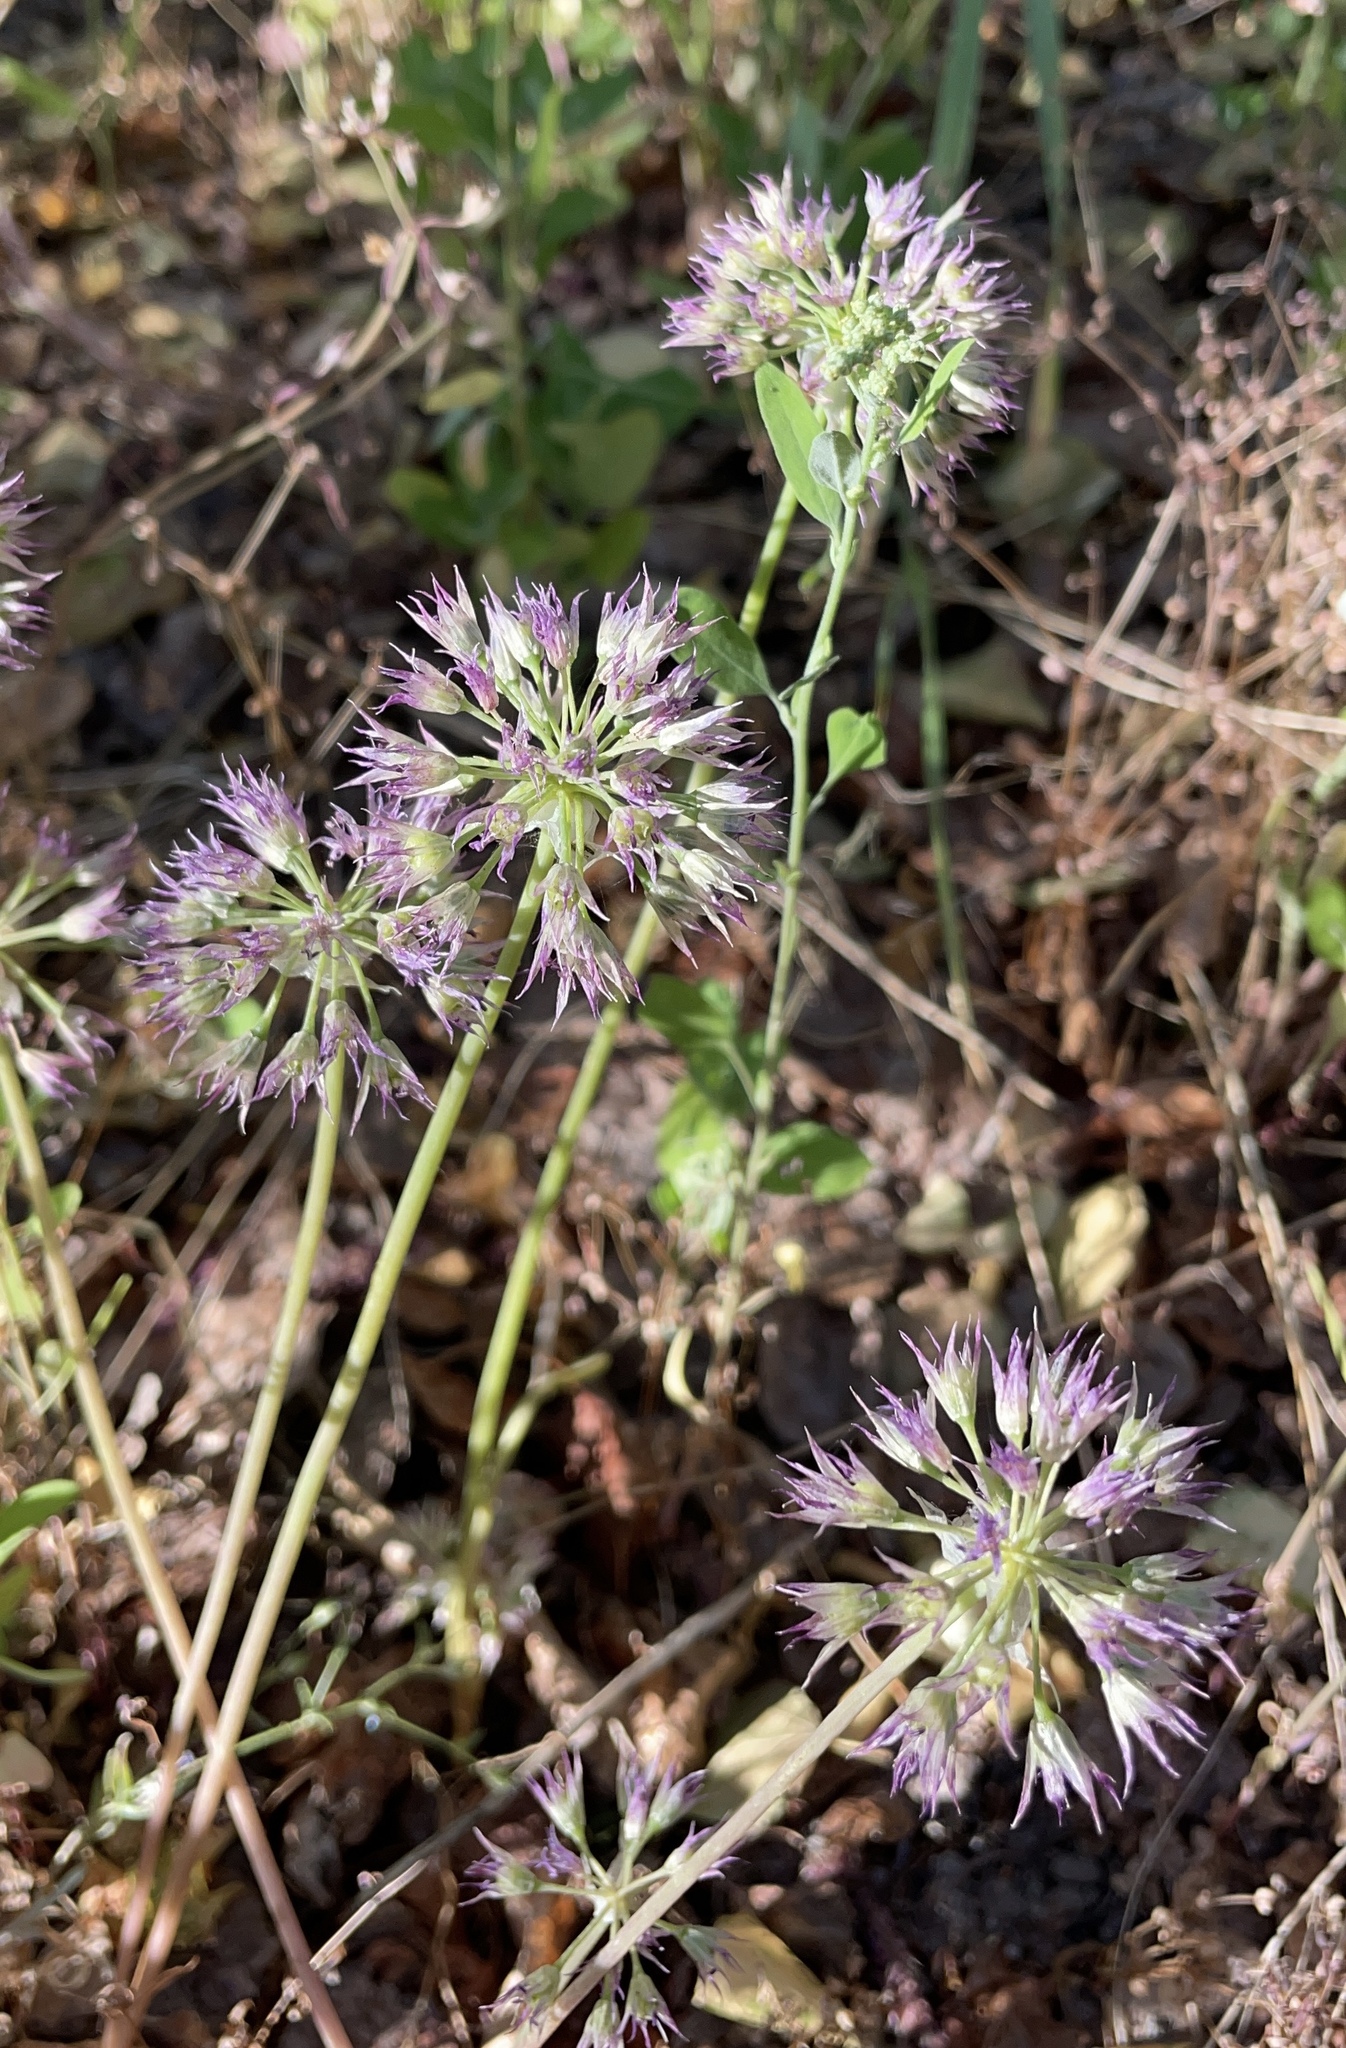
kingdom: Plantae
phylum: Tracheophyta
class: Liliopsida
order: Asparagales
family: Amaryllidaceae
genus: Allium
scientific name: Allium bisceptrum
